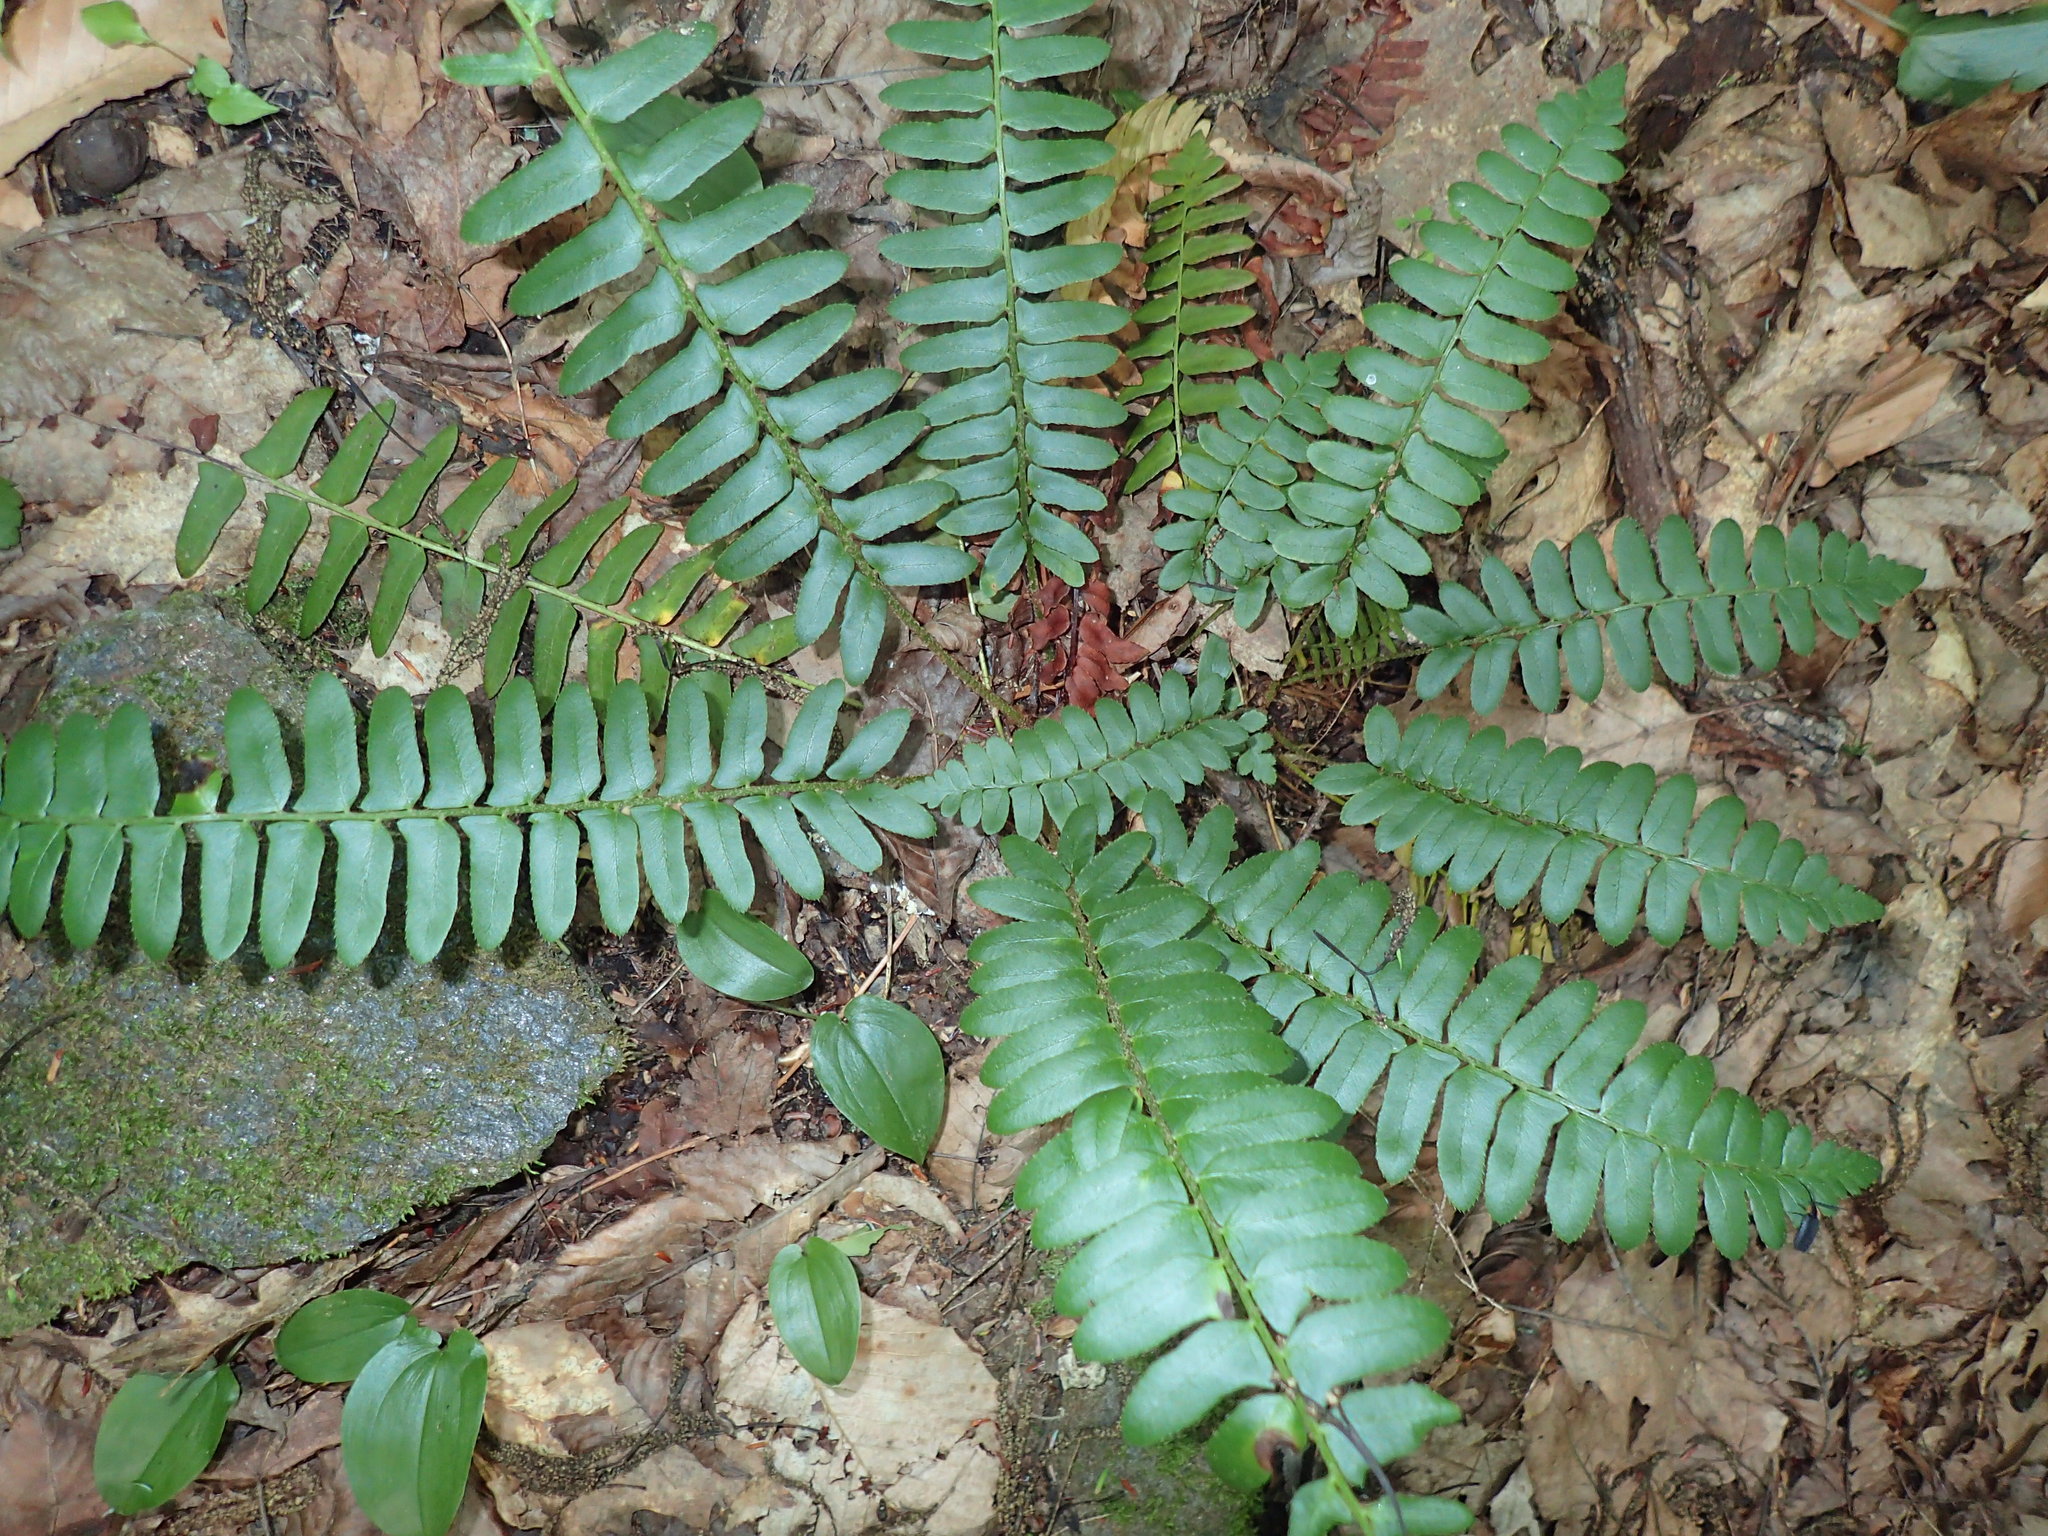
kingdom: Plantae
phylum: Tracheophyta
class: Polypodiopsida
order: Polypodiales
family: Dryopteridaceae
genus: Polystichum
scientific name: Polystichum acrostichoides
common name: Christmas fern
